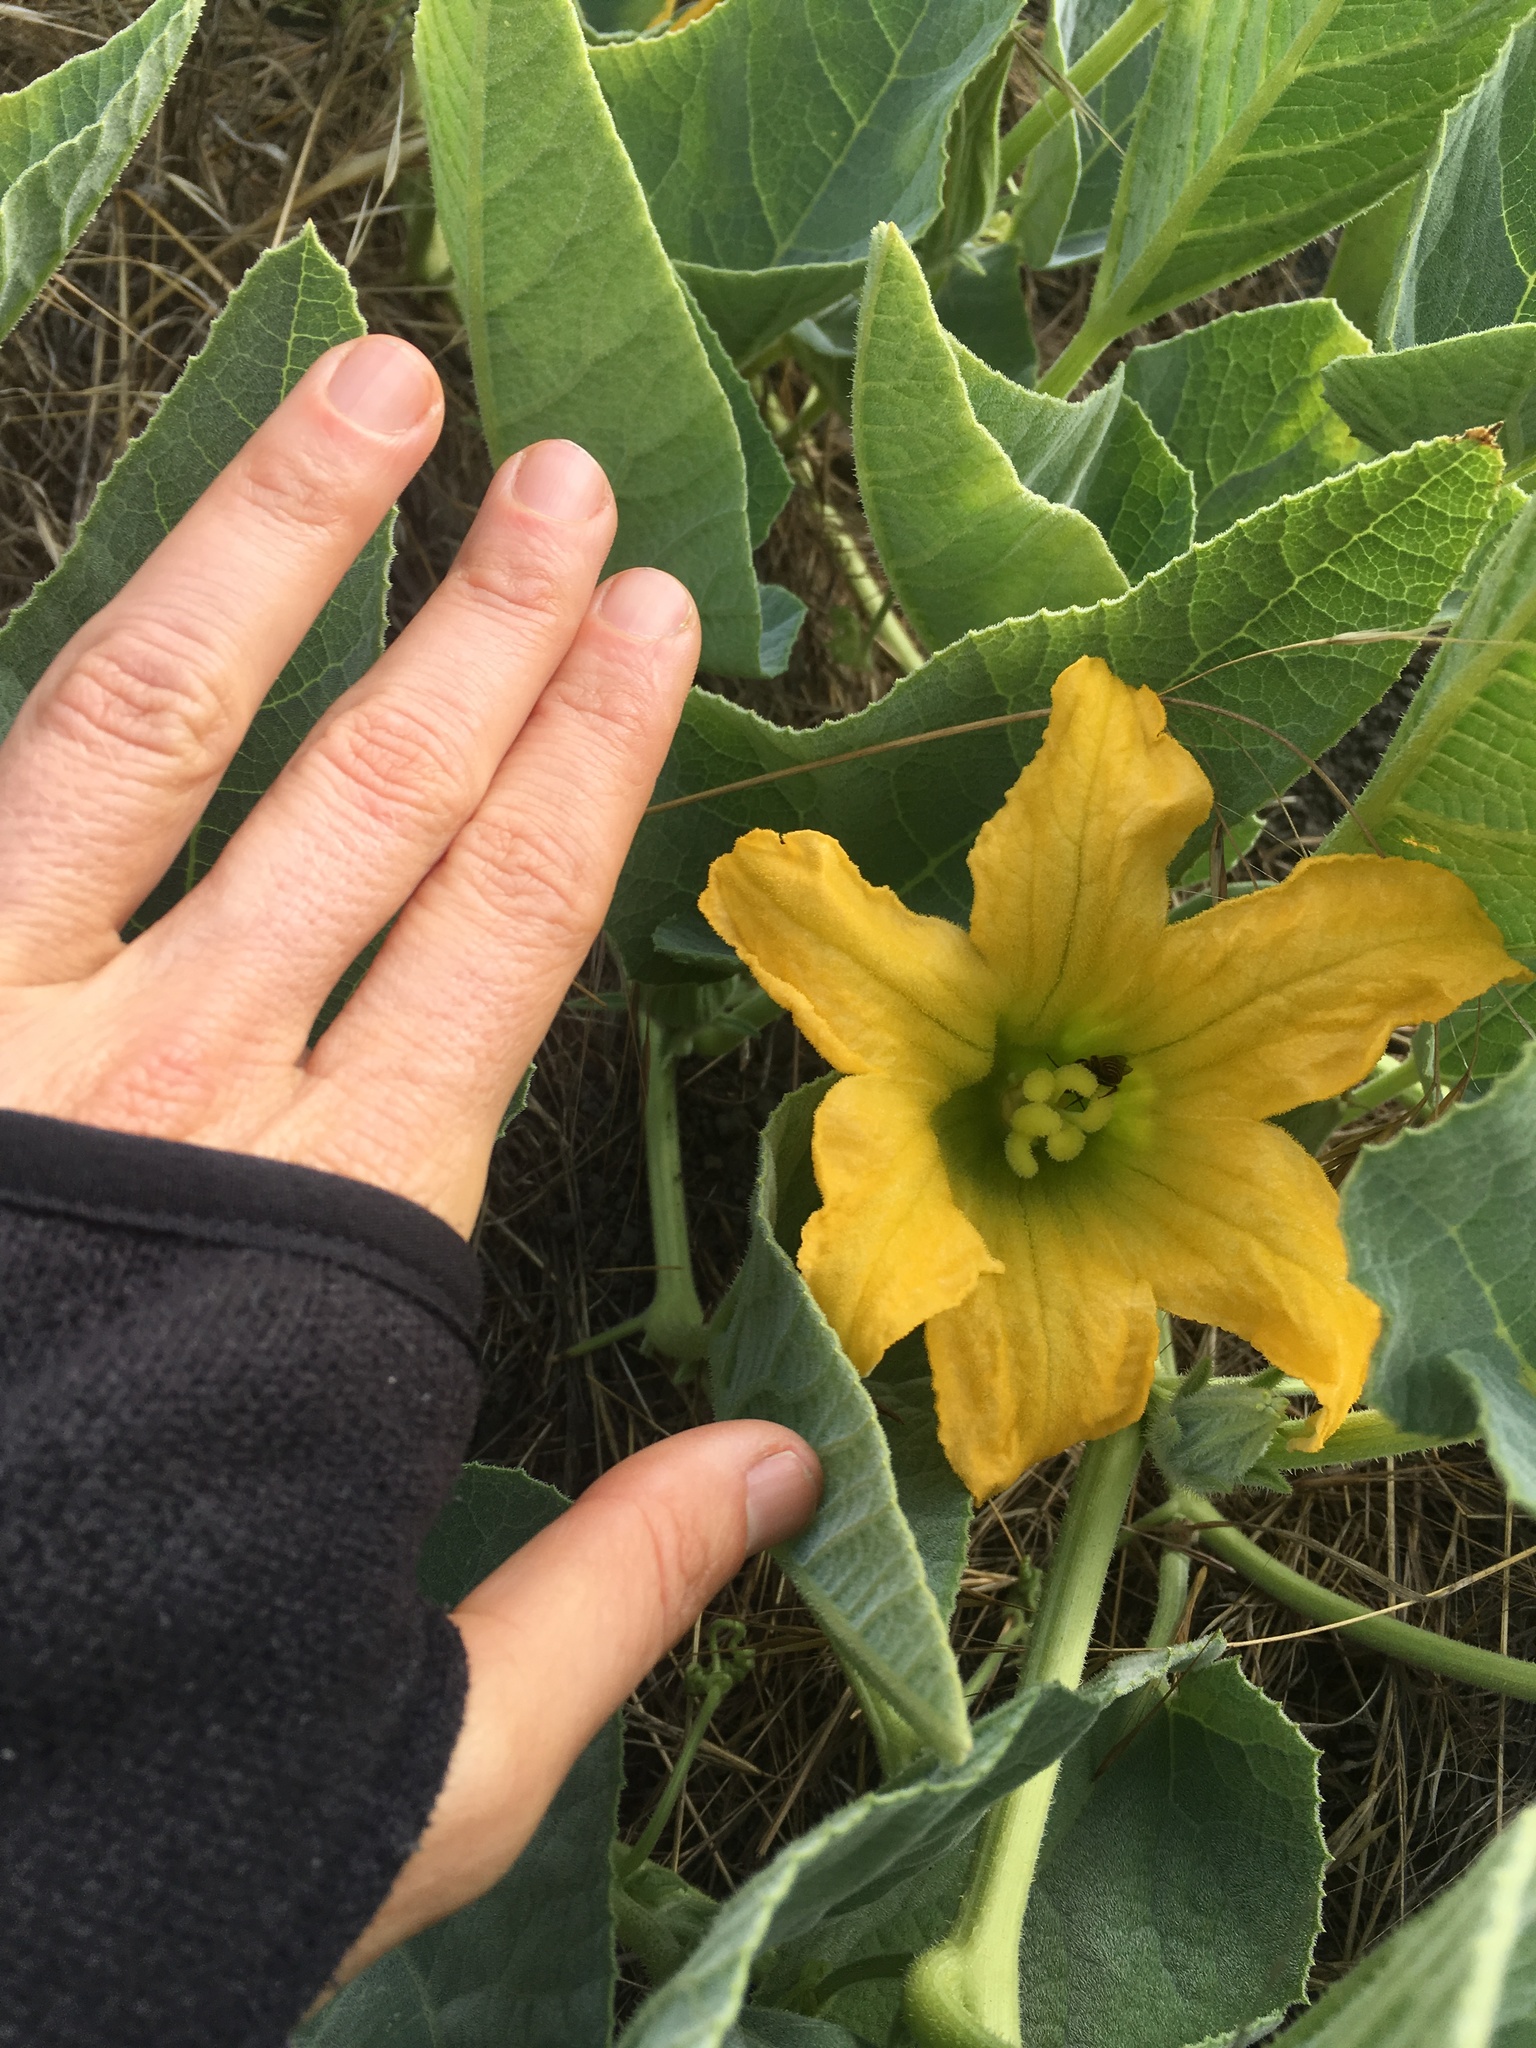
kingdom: Plantae
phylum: Tracheophyta
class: Magnoliopsida
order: Cucurbitales
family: Cucurbitaceae
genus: Cucurbita
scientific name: Cucurbita foetidissima
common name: Buffalo gourd
